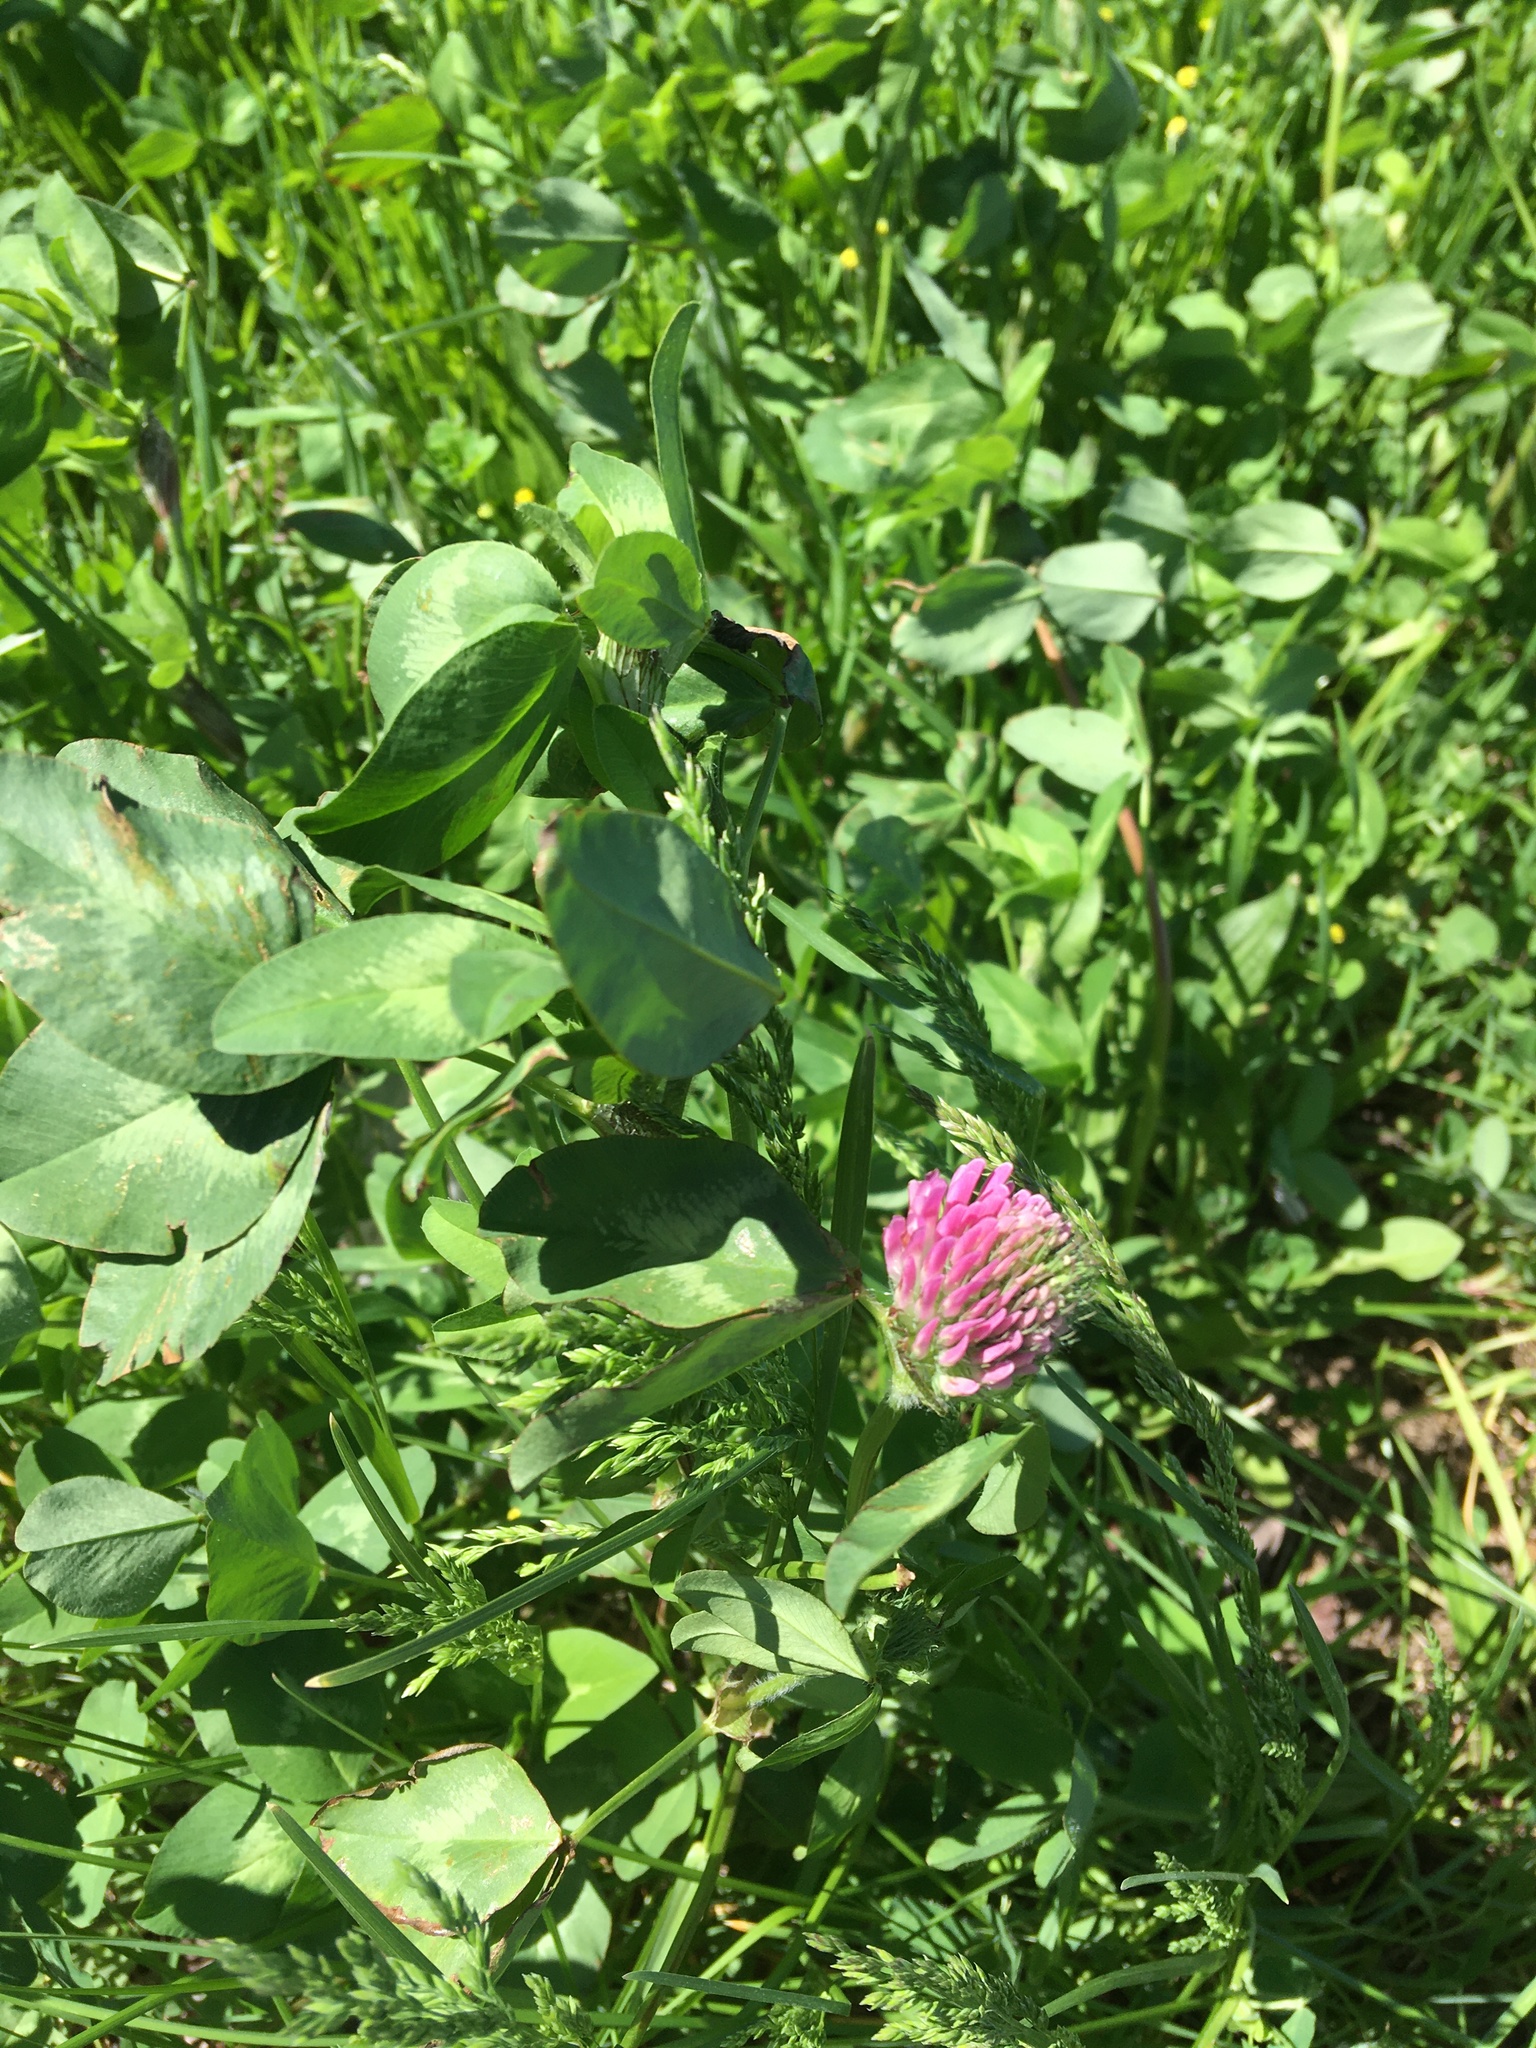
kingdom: Plantae
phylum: Tracheophyta
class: Magnoliopsida
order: Fabales
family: Fabaceae
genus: Trifolium
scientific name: Trifolium pratense
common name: Red clover
